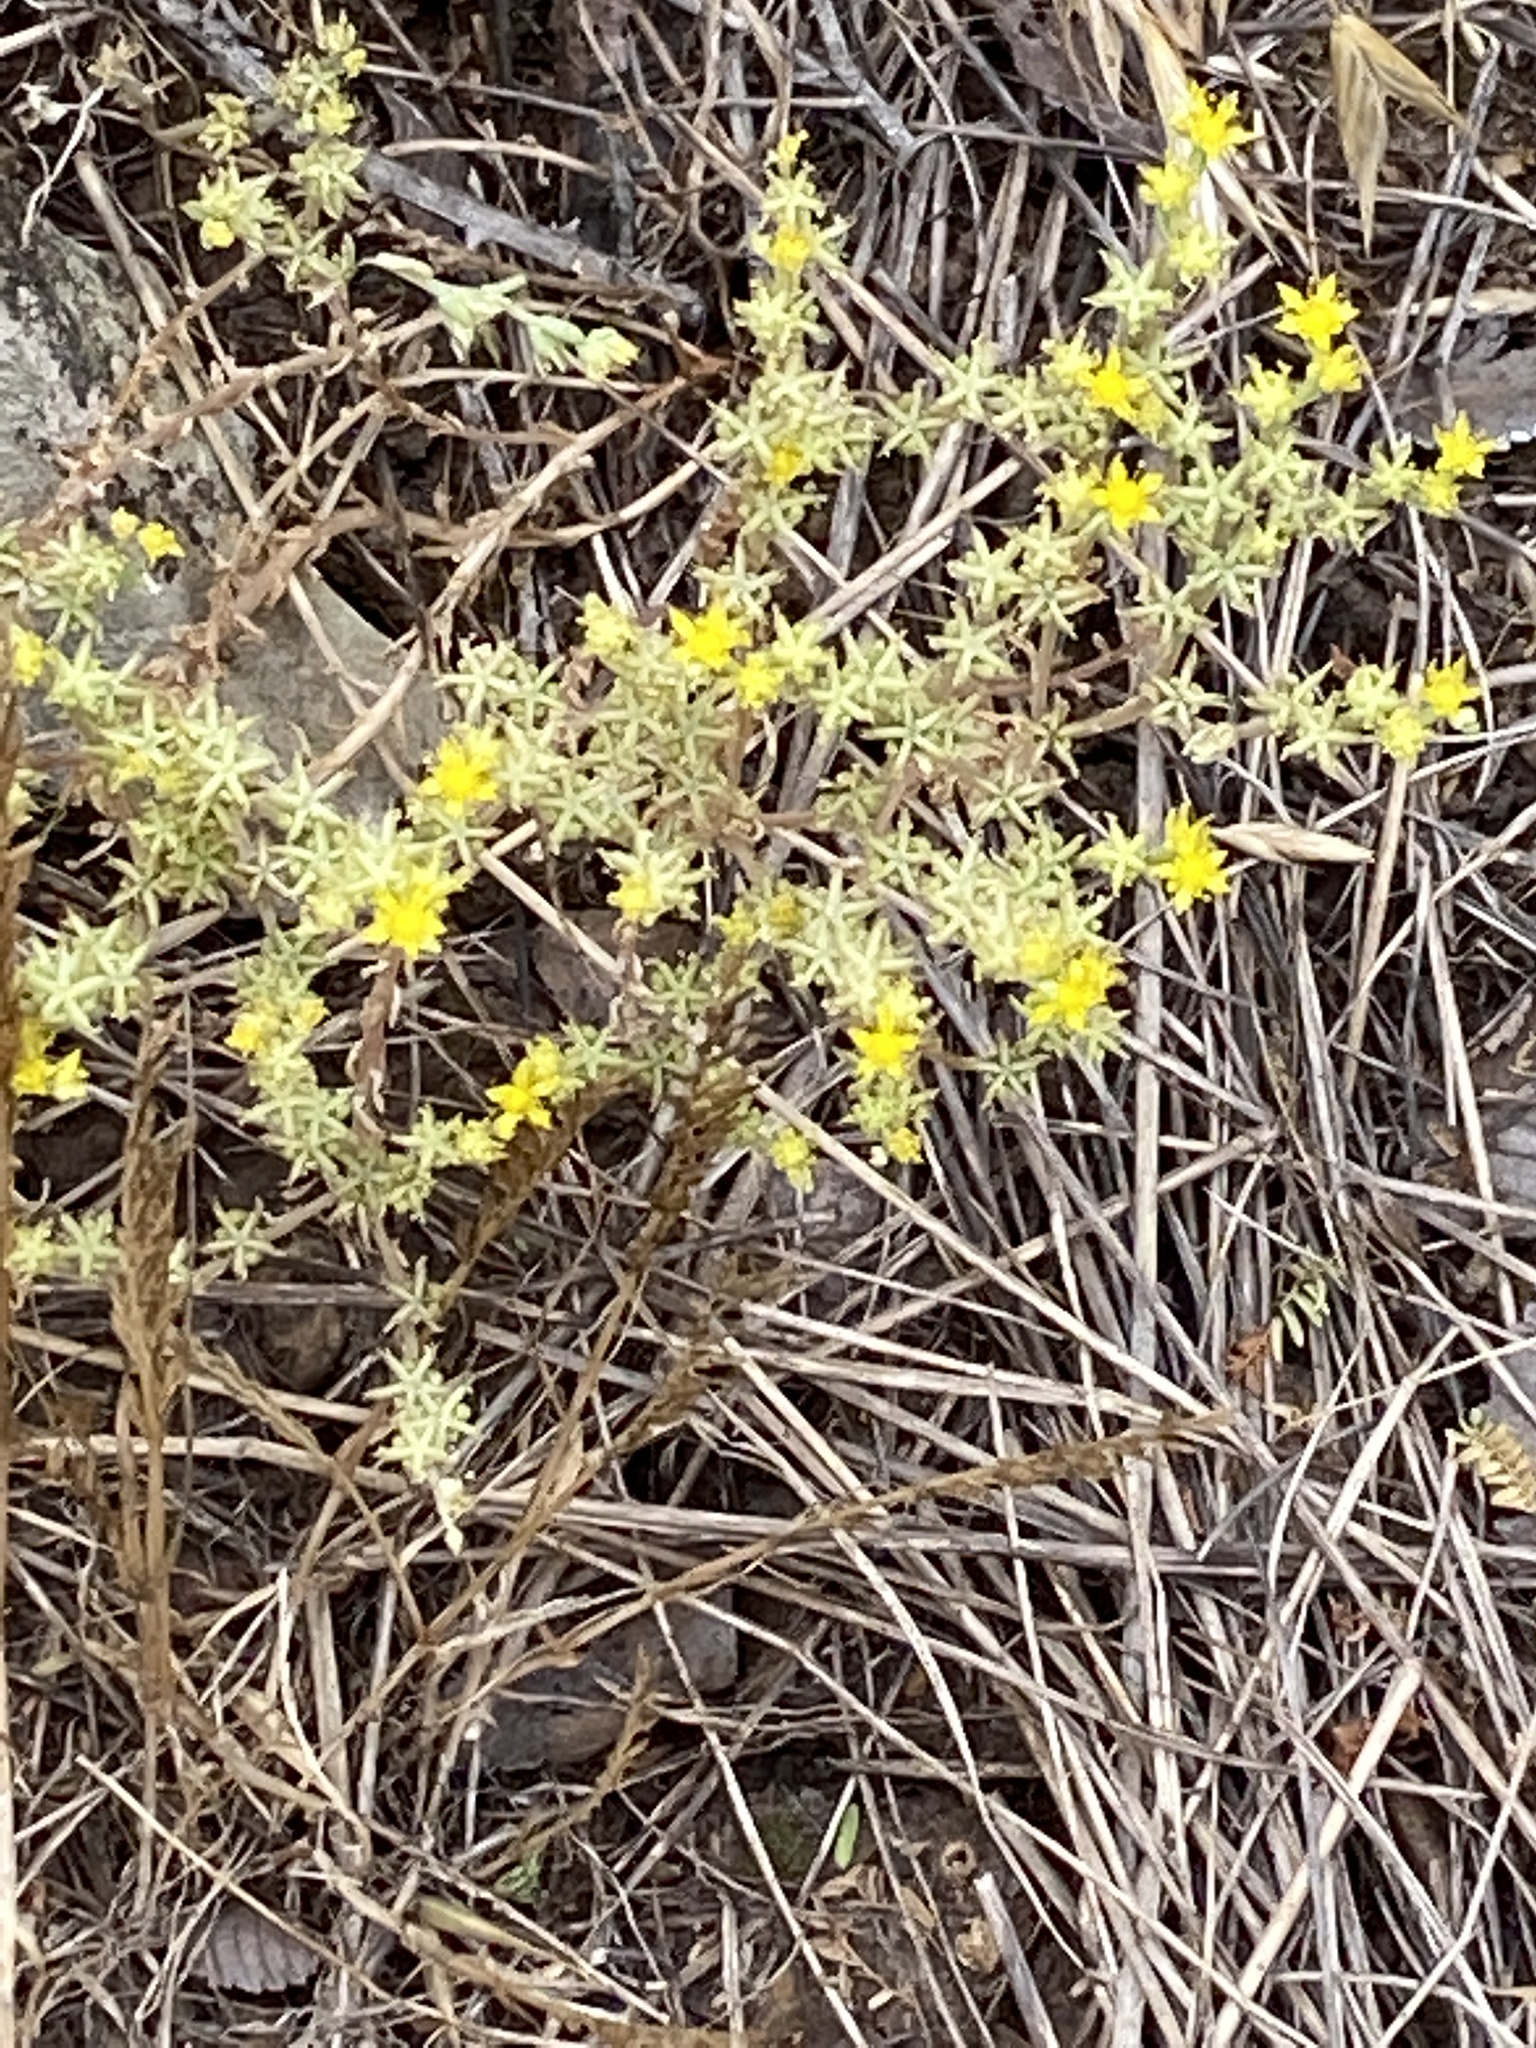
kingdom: Plantae
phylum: Tracheophyta
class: Magnoliopsida
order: Saxifragales
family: Crassulaceae
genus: Sedum
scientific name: Sedum nuttallii
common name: Yellow stonecrop
